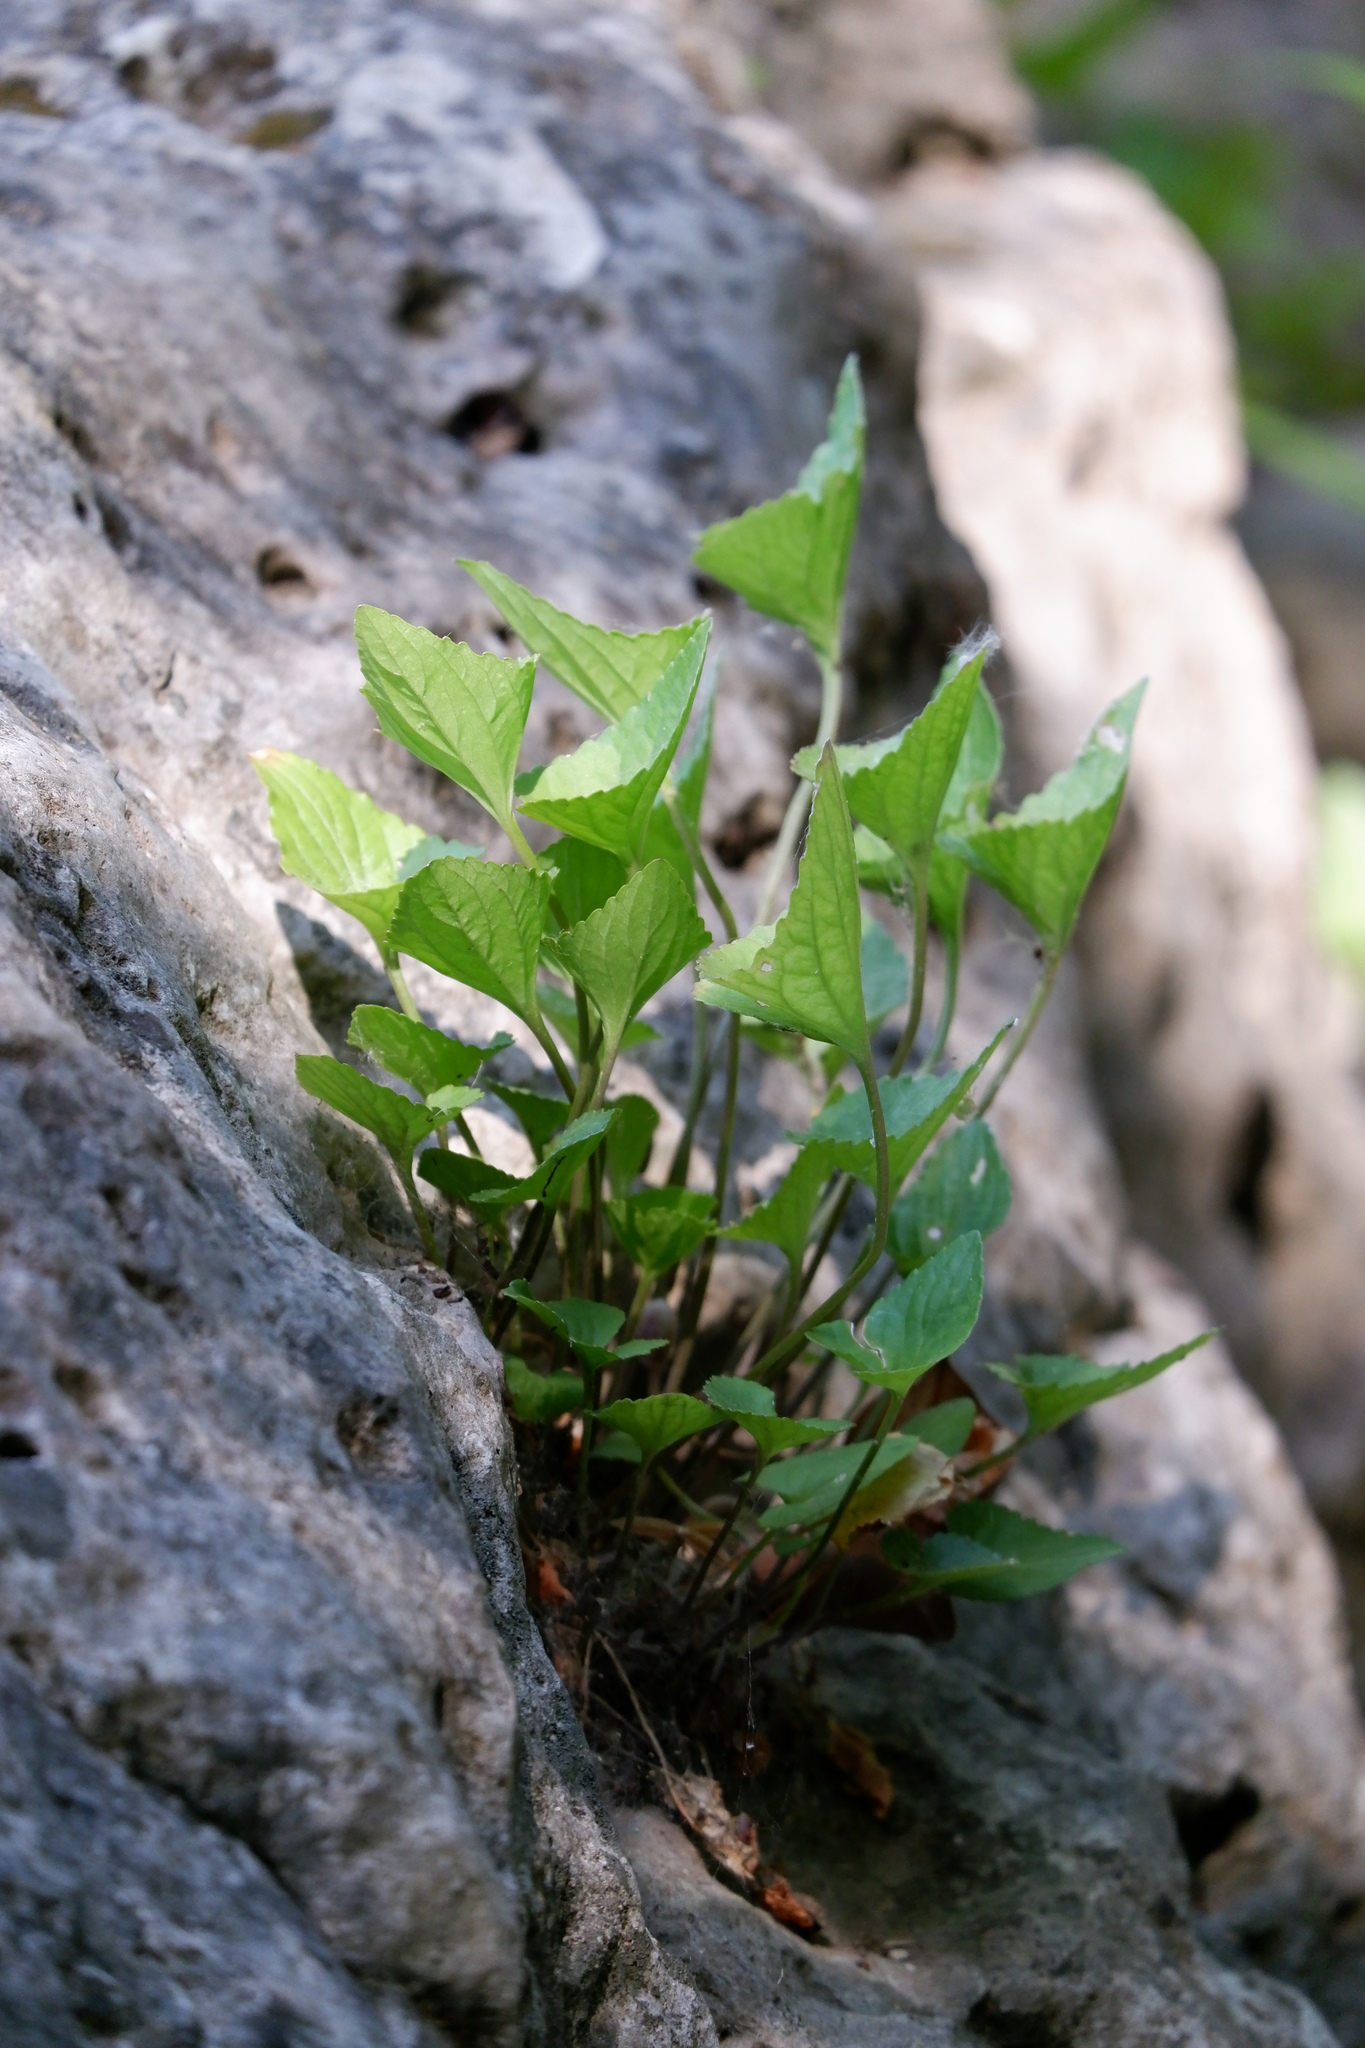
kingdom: Plantae
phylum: Tracheophyta
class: Magnoliopsida
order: Malpighiales
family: Violaceae
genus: Viola
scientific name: Viola retusa
